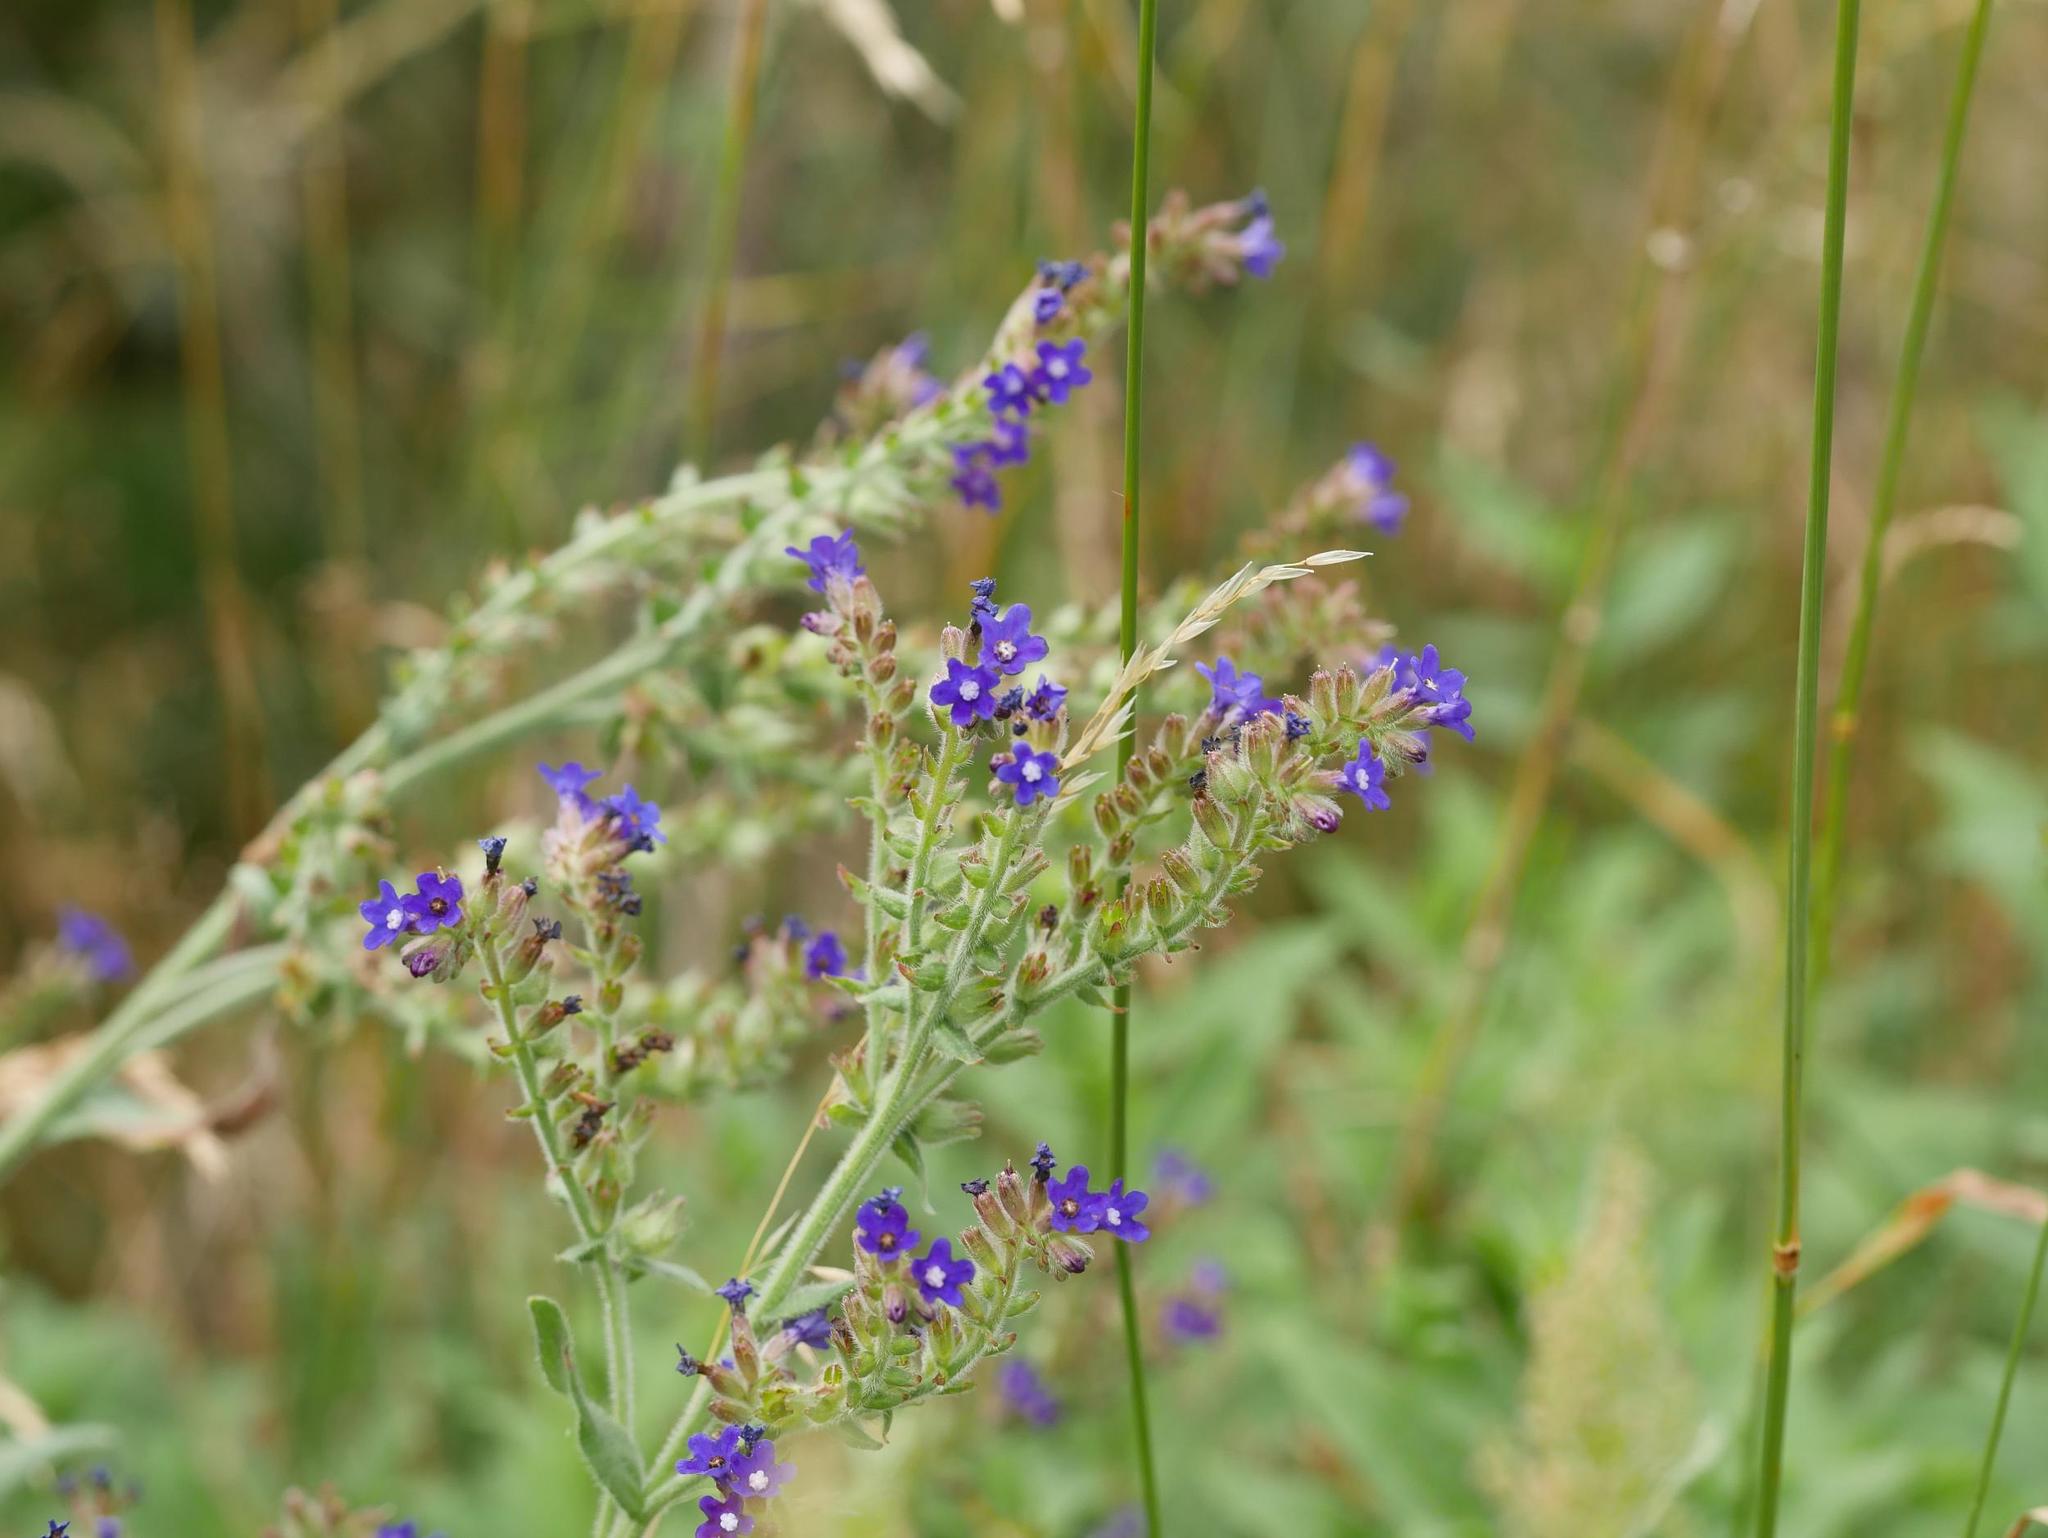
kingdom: Plantae
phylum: Tracheophyta
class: Magnoliopsida
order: Boraginales
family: Boraginaceae
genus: Anchusa
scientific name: Anchusa officinalis
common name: Alkanet
